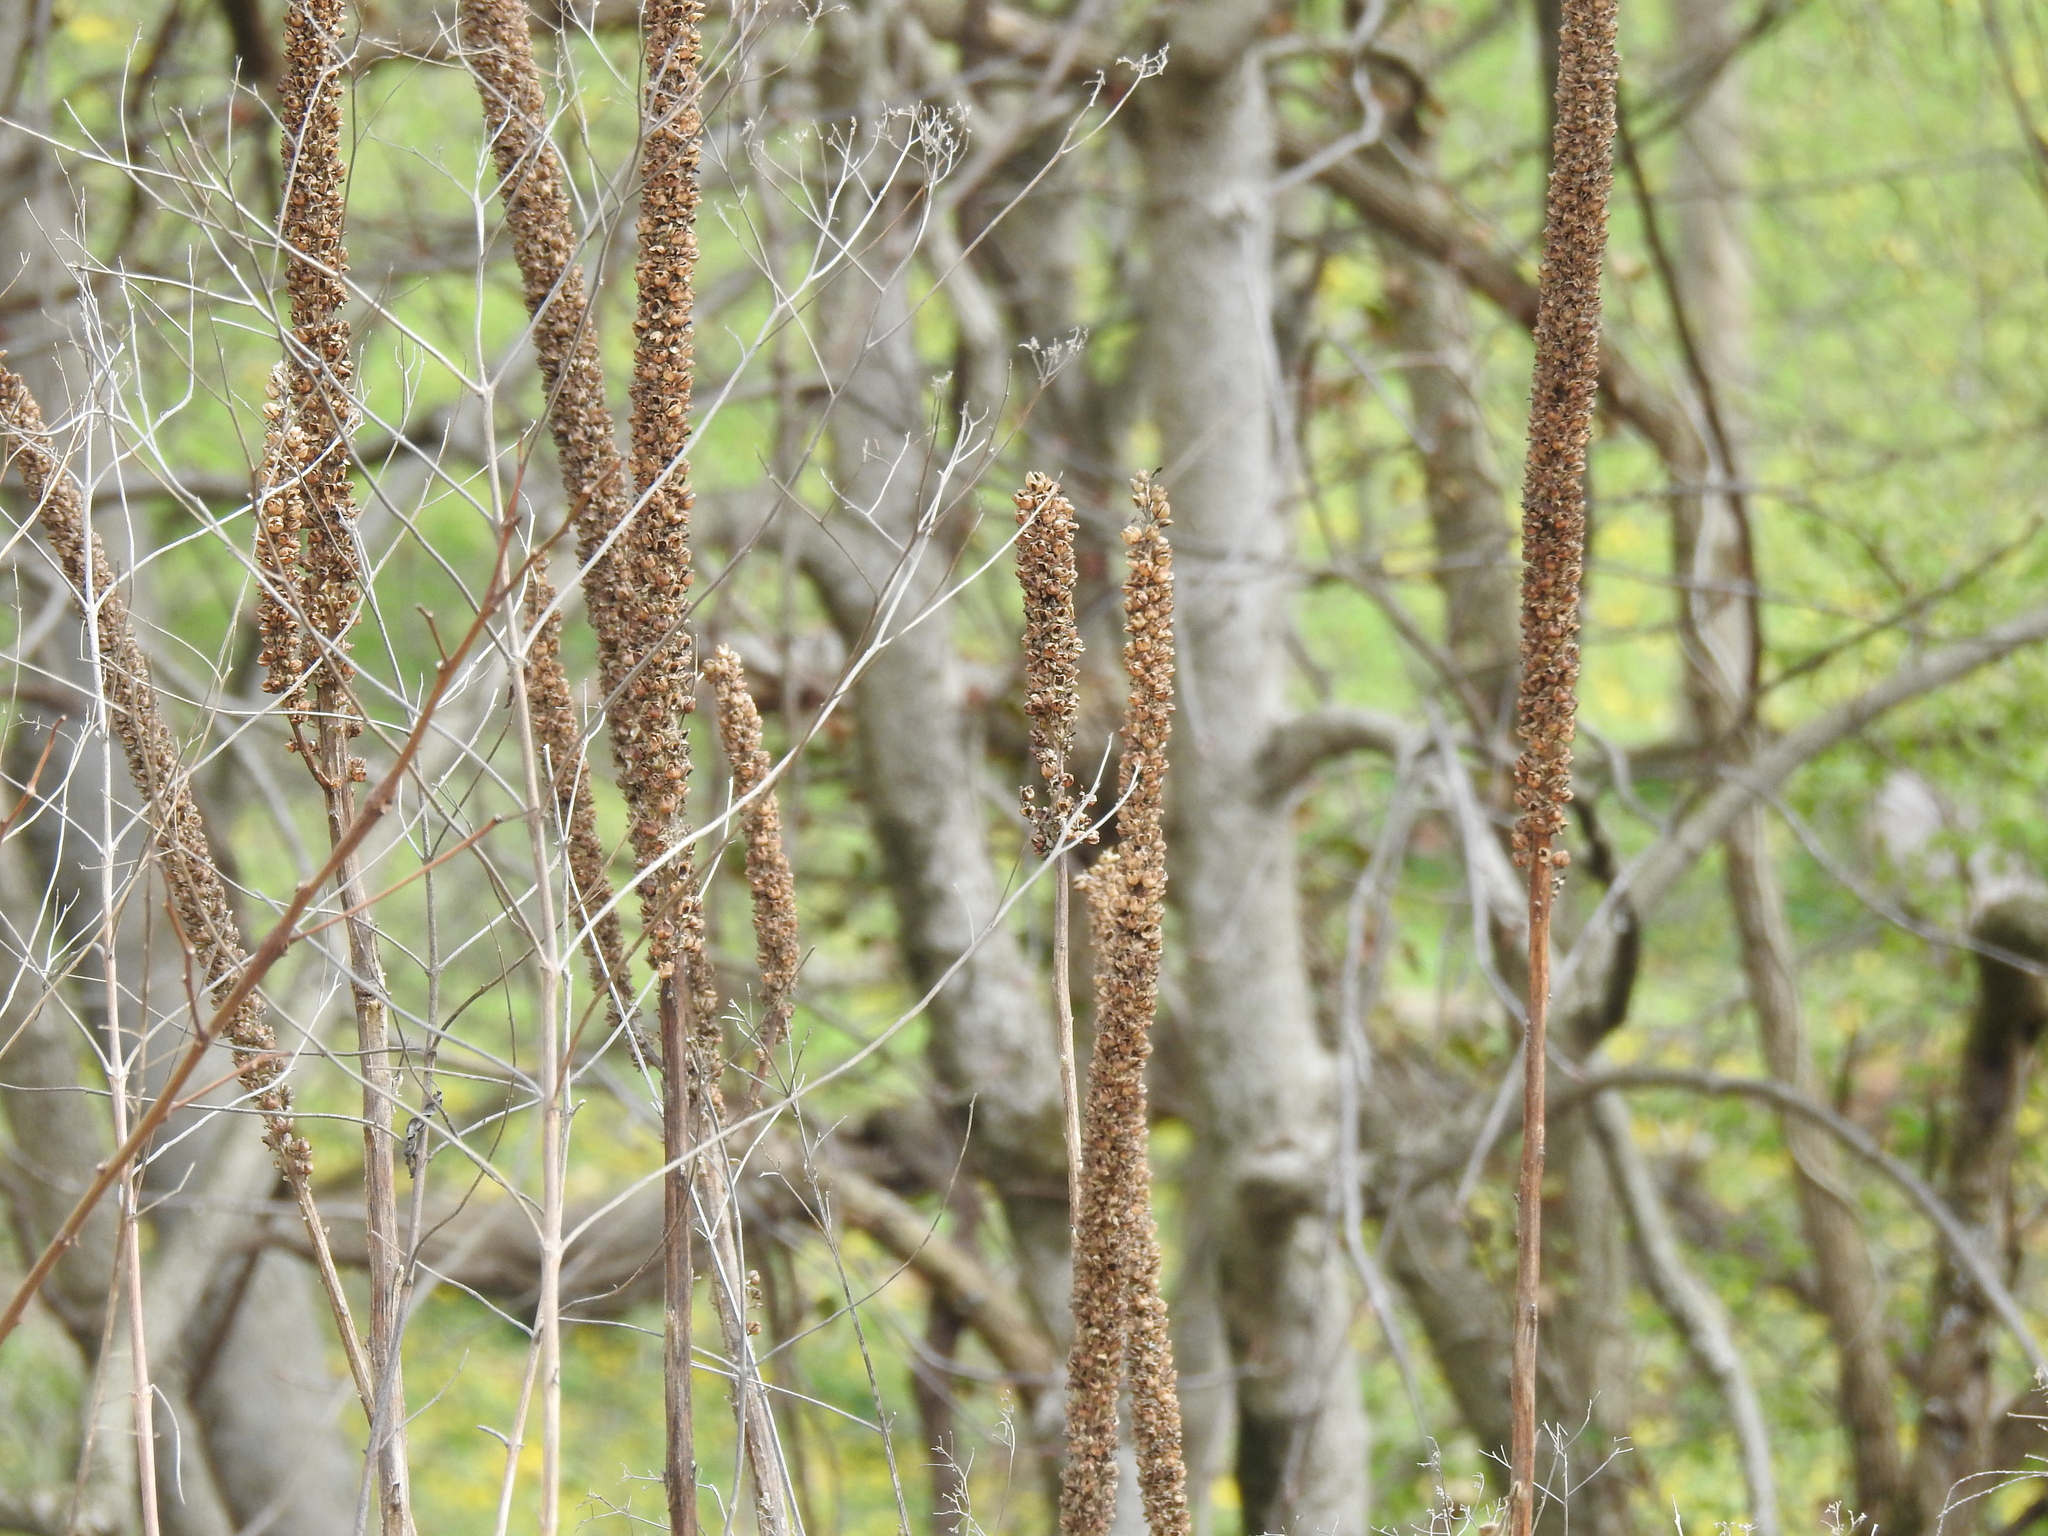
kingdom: Plantae
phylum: Tracheophyta
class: Magnoliopsida
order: Lamiales
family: Scrophulariaceae
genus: Verbascum
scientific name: Verbascum thapsus
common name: Common mullein
